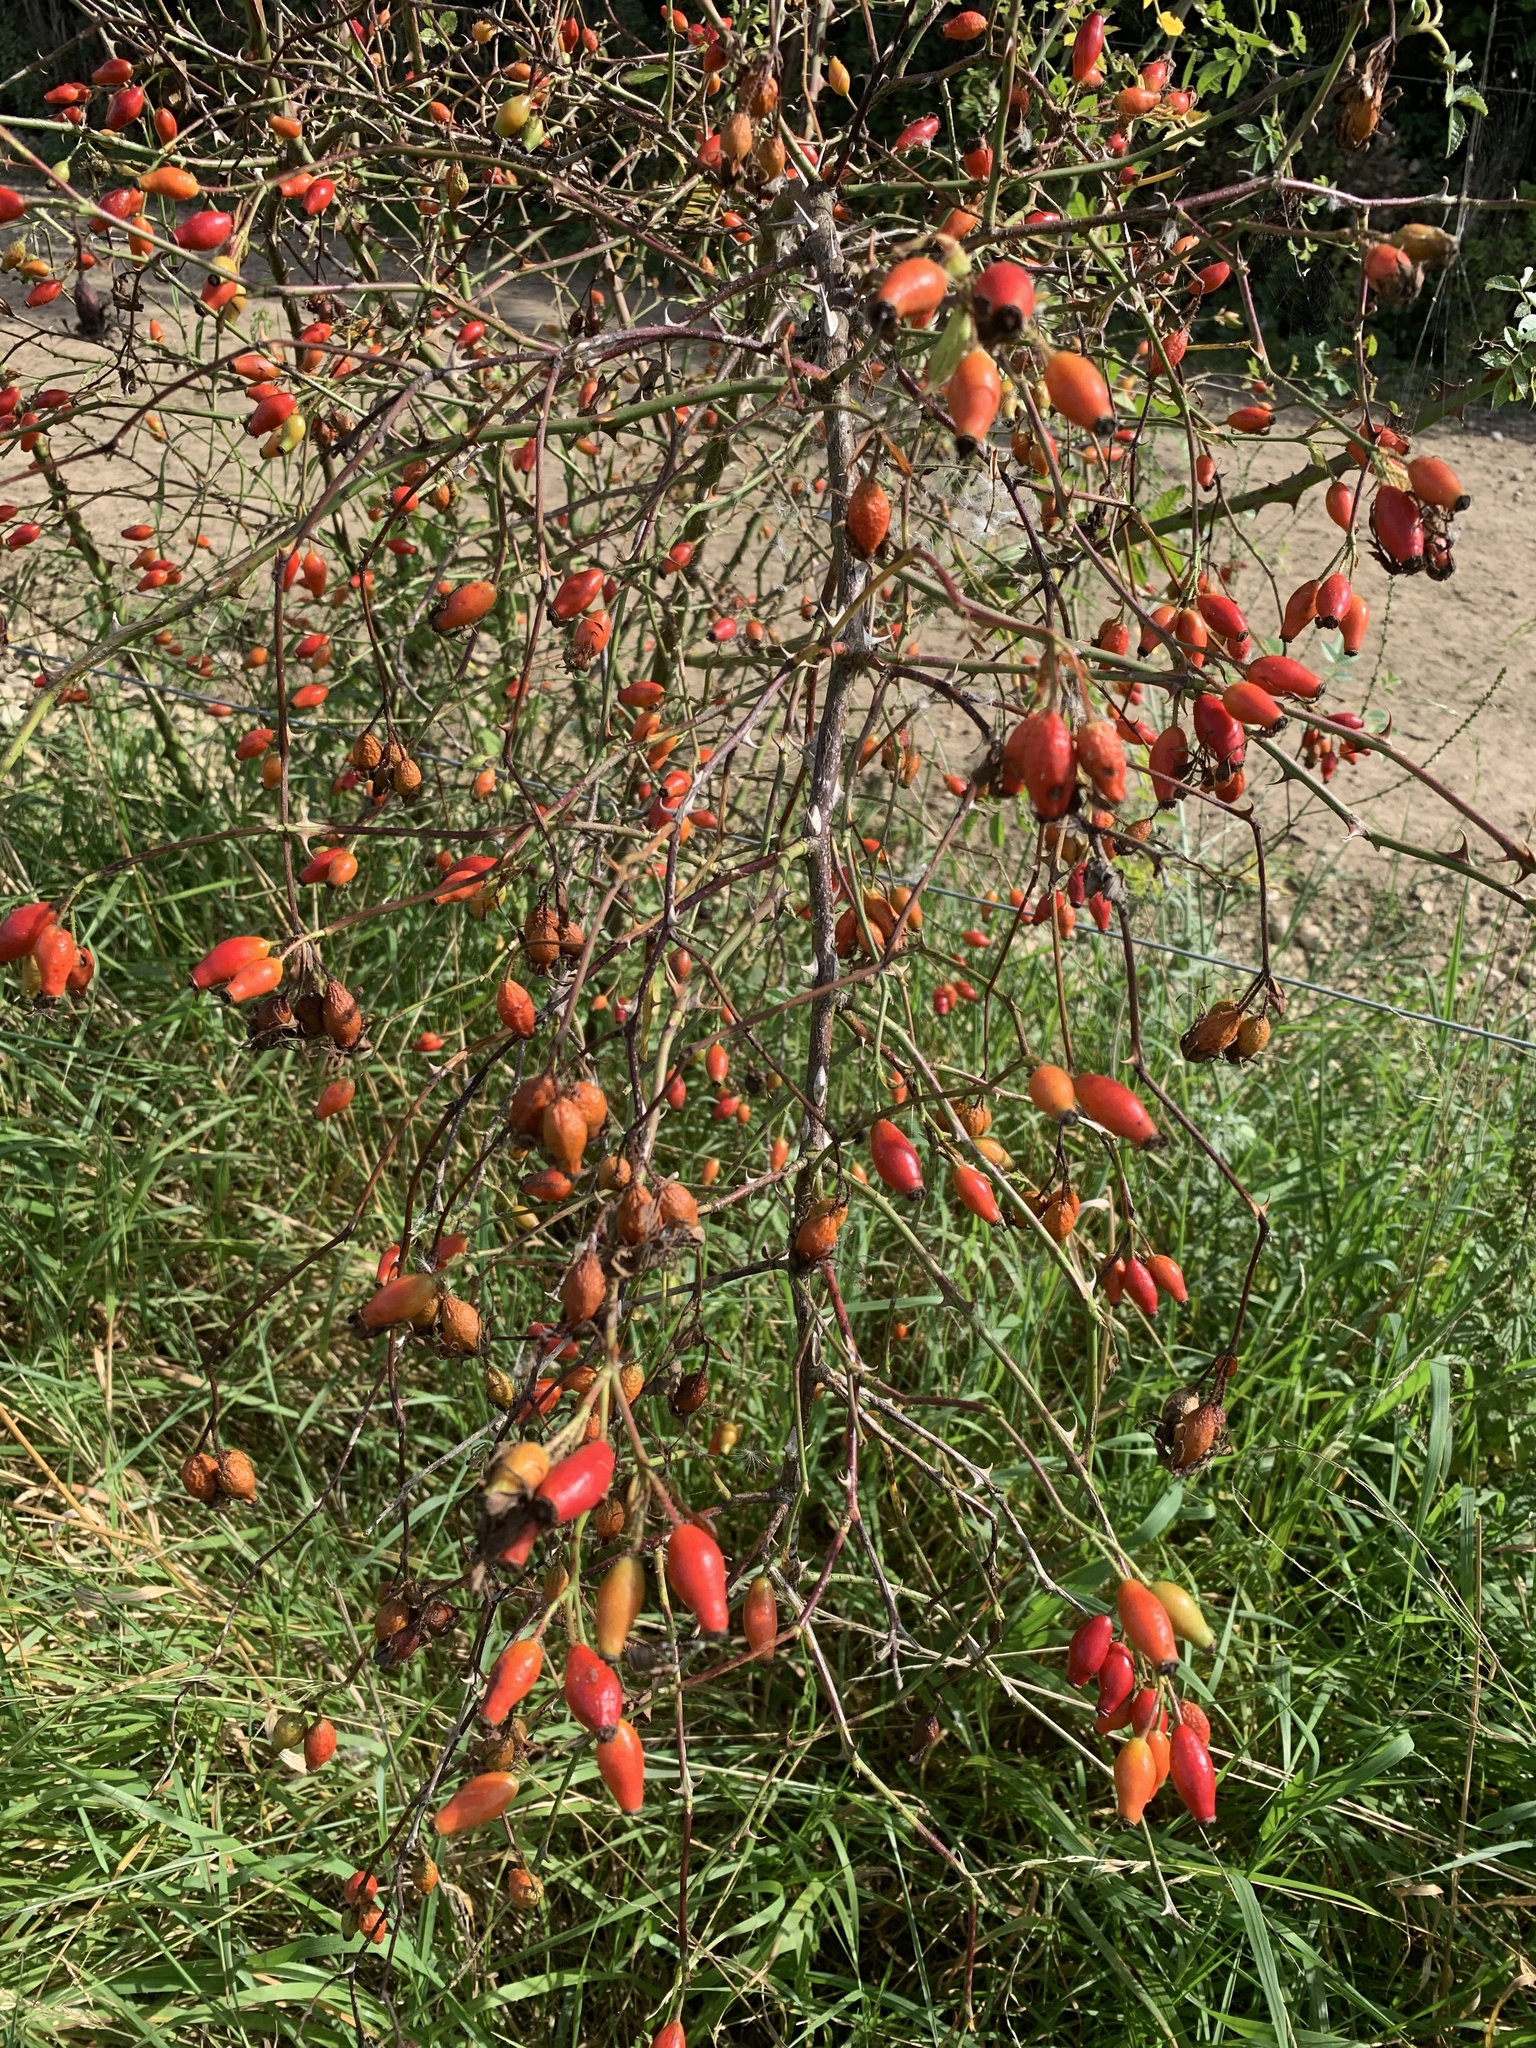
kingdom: Plantae
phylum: Tracheophyta
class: Magnoliopsida
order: Rosales
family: Rosaceae
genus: Rosa
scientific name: Rosa canina
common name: Dog rose
